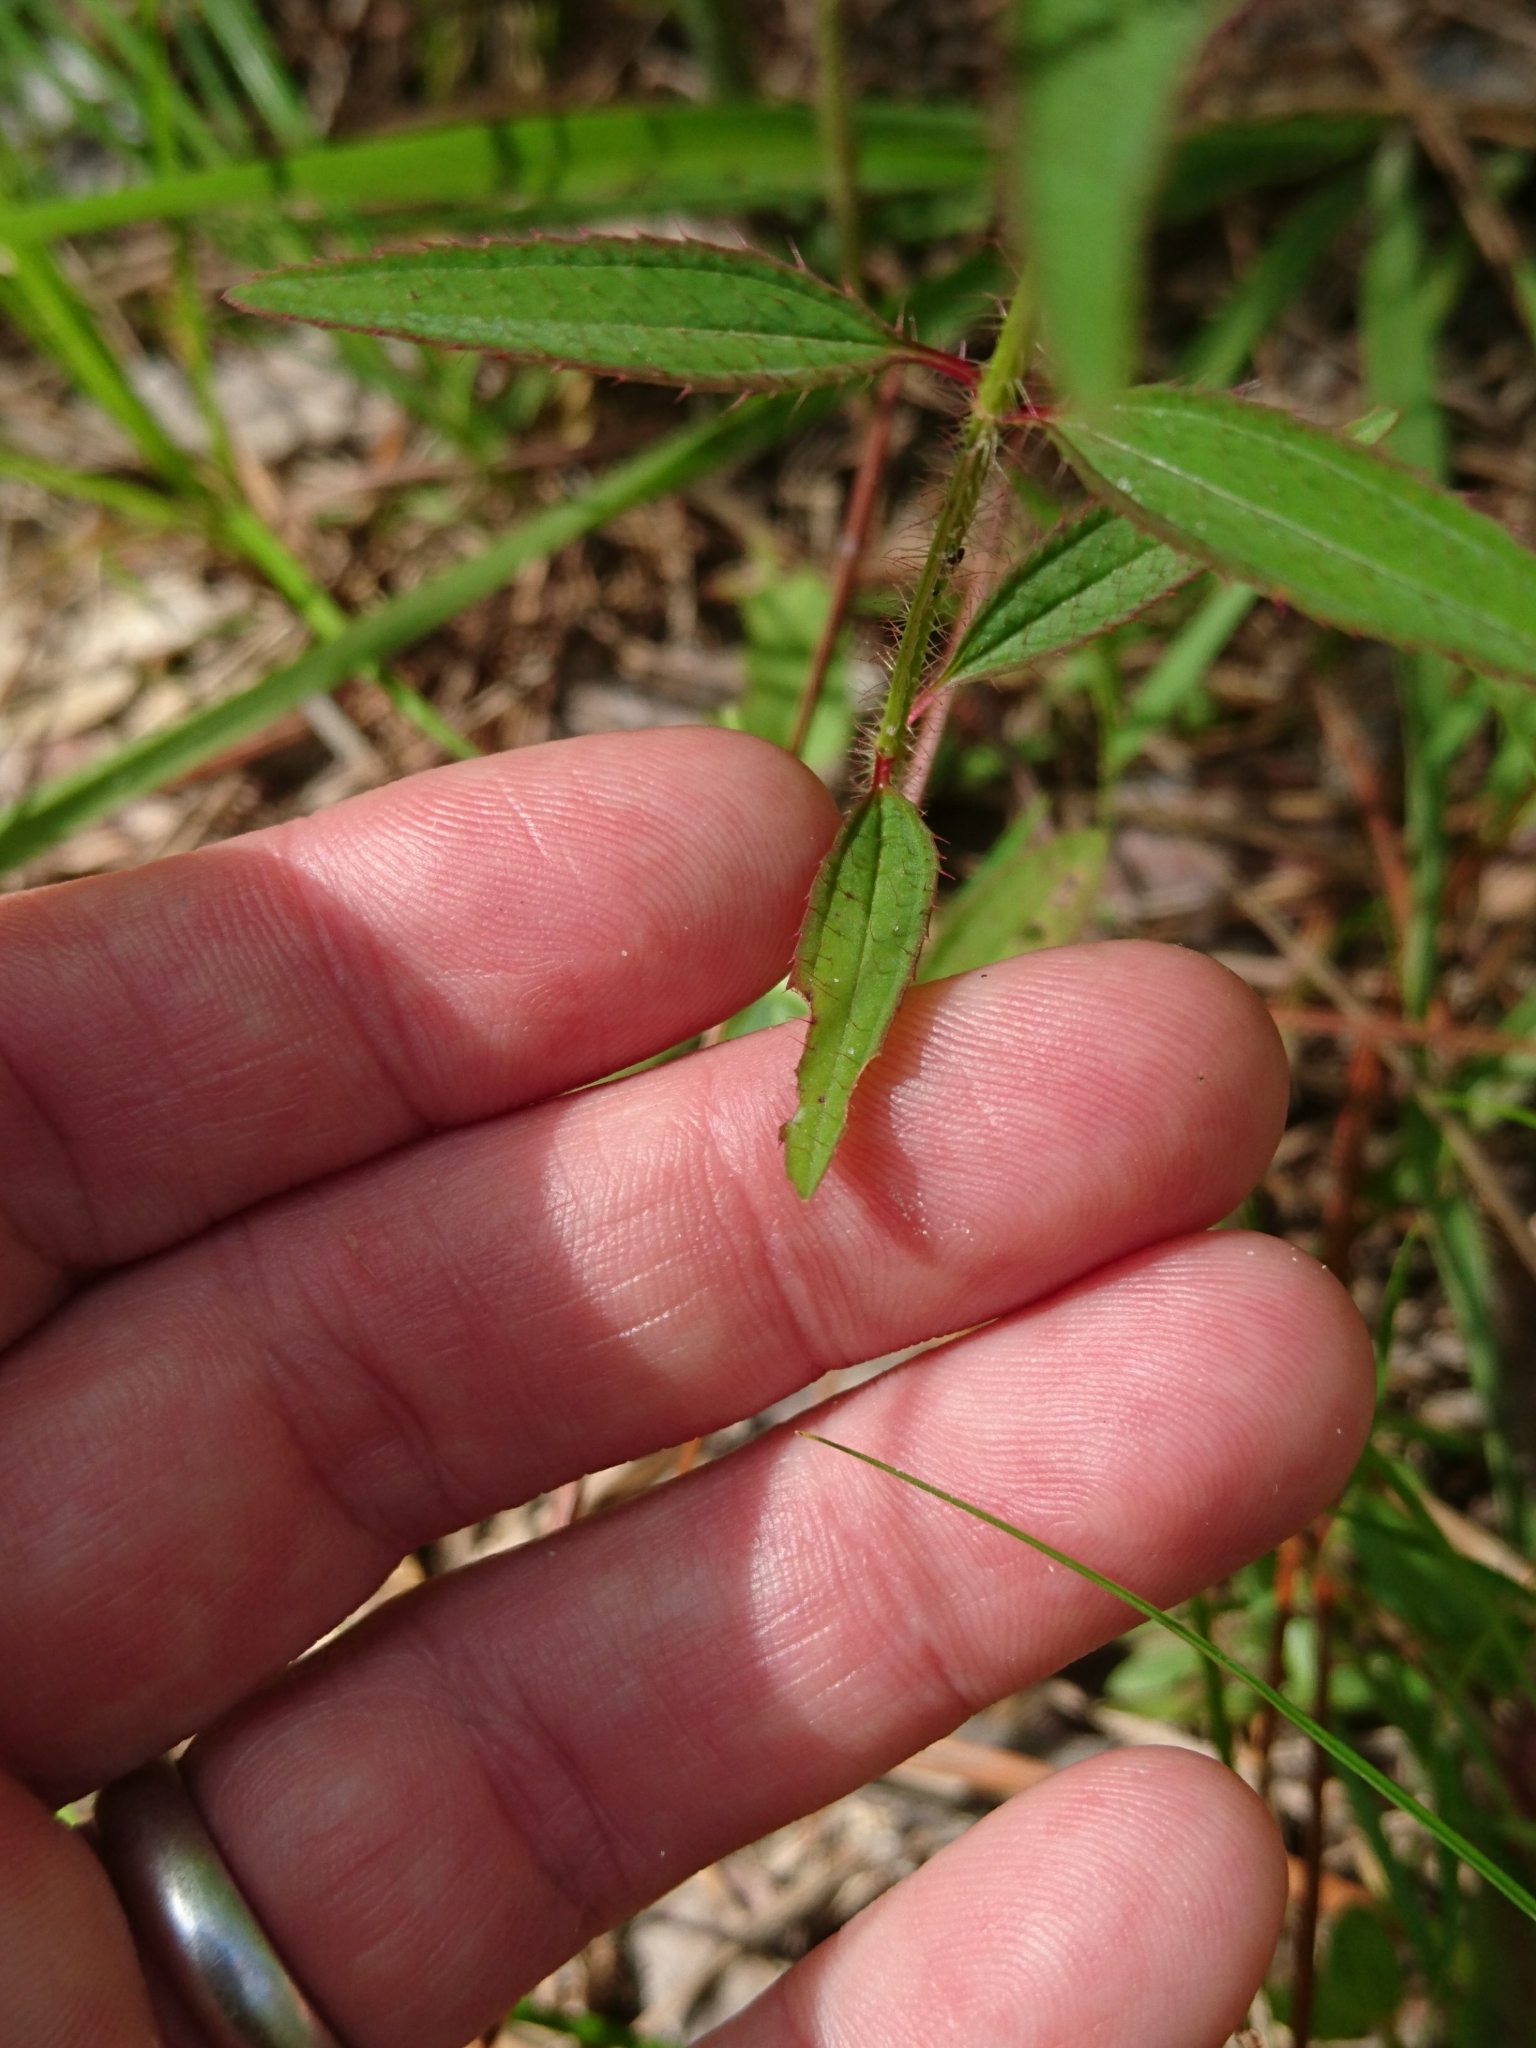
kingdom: Plantae
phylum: Tracheophyta
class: Magnoliopsida
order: Myrtales
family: Melastomataceae
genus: Rhexia
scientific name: Rhexia mariana
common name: Dull meadow-pitcher
